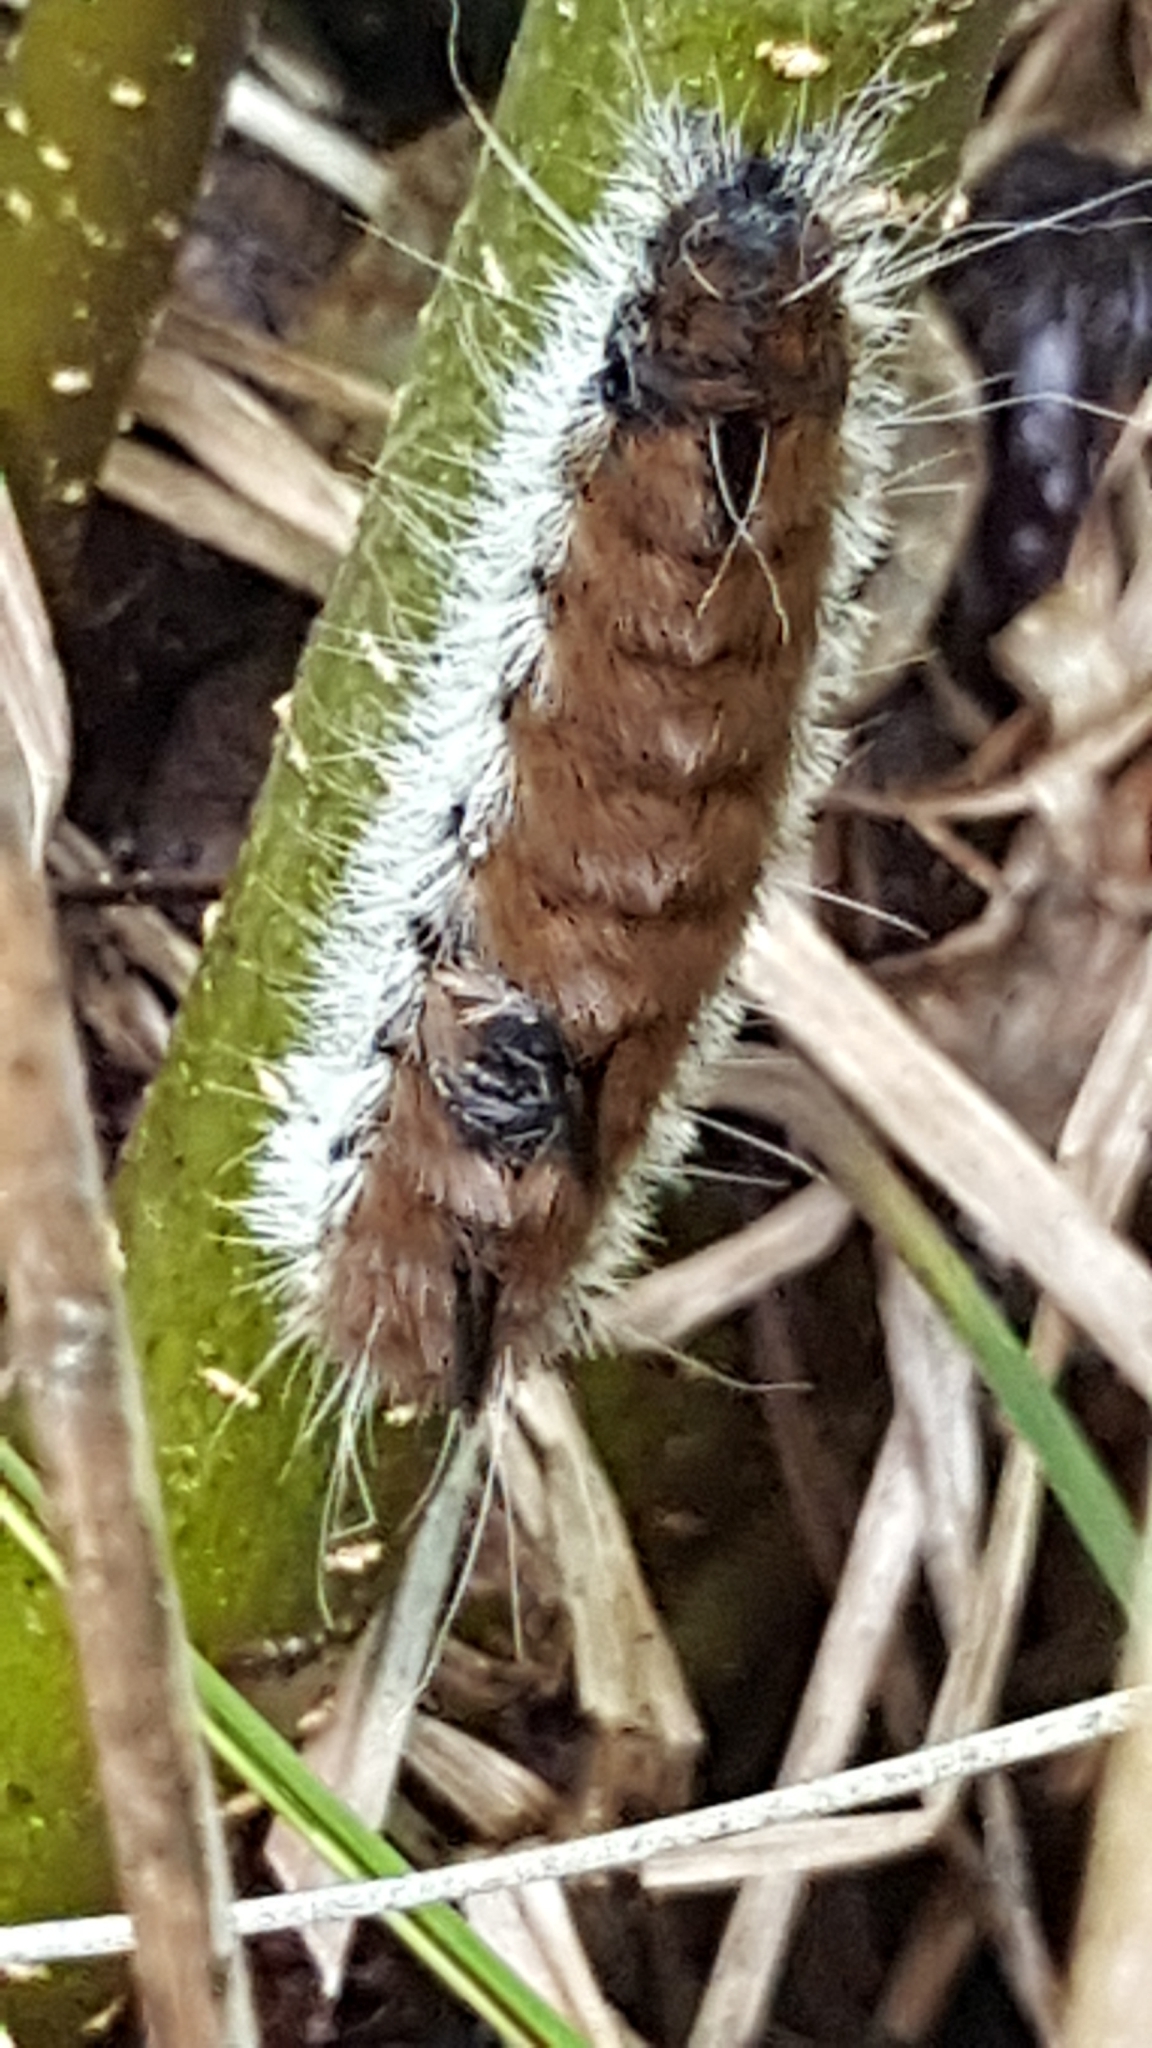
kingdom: Animalia
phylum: Arthropoda
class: Insecta
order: Lepidoptera
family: Noctuidae
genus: Acronicta
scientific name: Acronicta insita
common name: Large gray dagger
